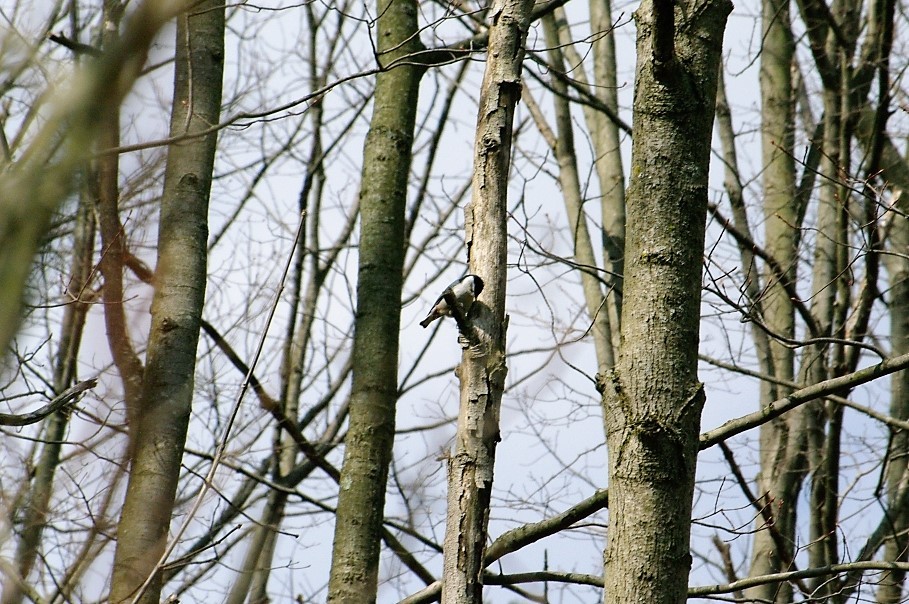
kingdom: Animalia
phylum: Chordata
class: Aves
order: Passeriformes
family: Sittidae
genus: Sitta
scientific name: Sitta carolinensis
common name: White-breasted nuthatch
